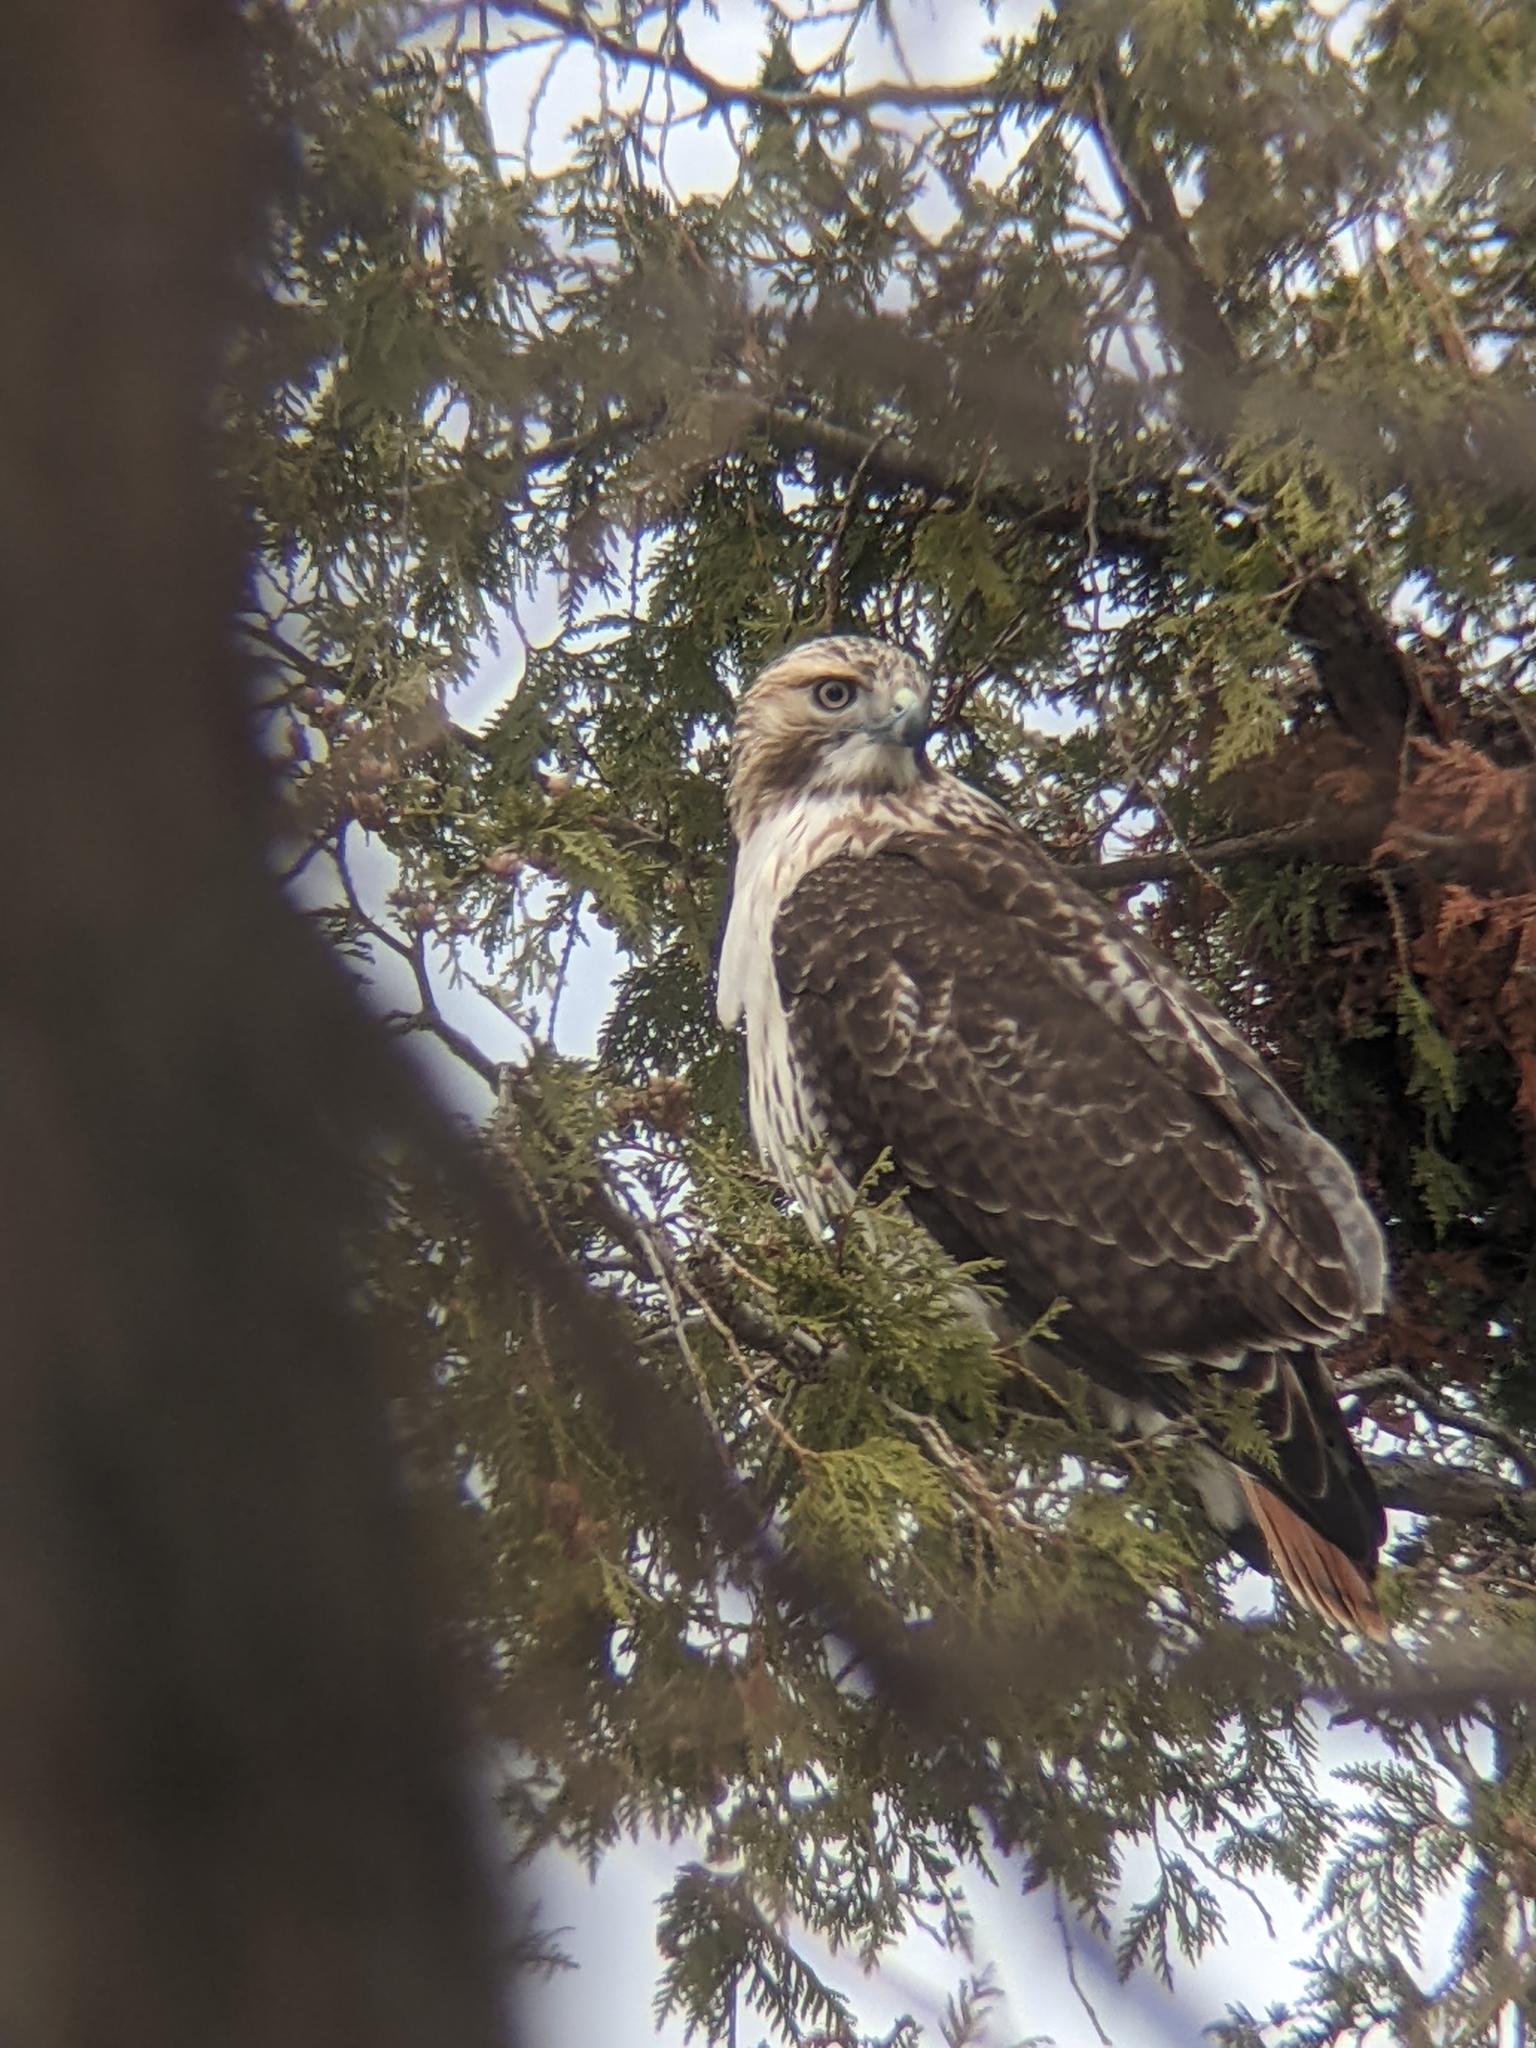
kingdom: Animalia
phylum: Chordata
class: Aves
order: Accipitriformes
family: Accipitridae
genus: Buteo
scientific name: Buteo jamaicensis
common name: Red-tailed hawk
